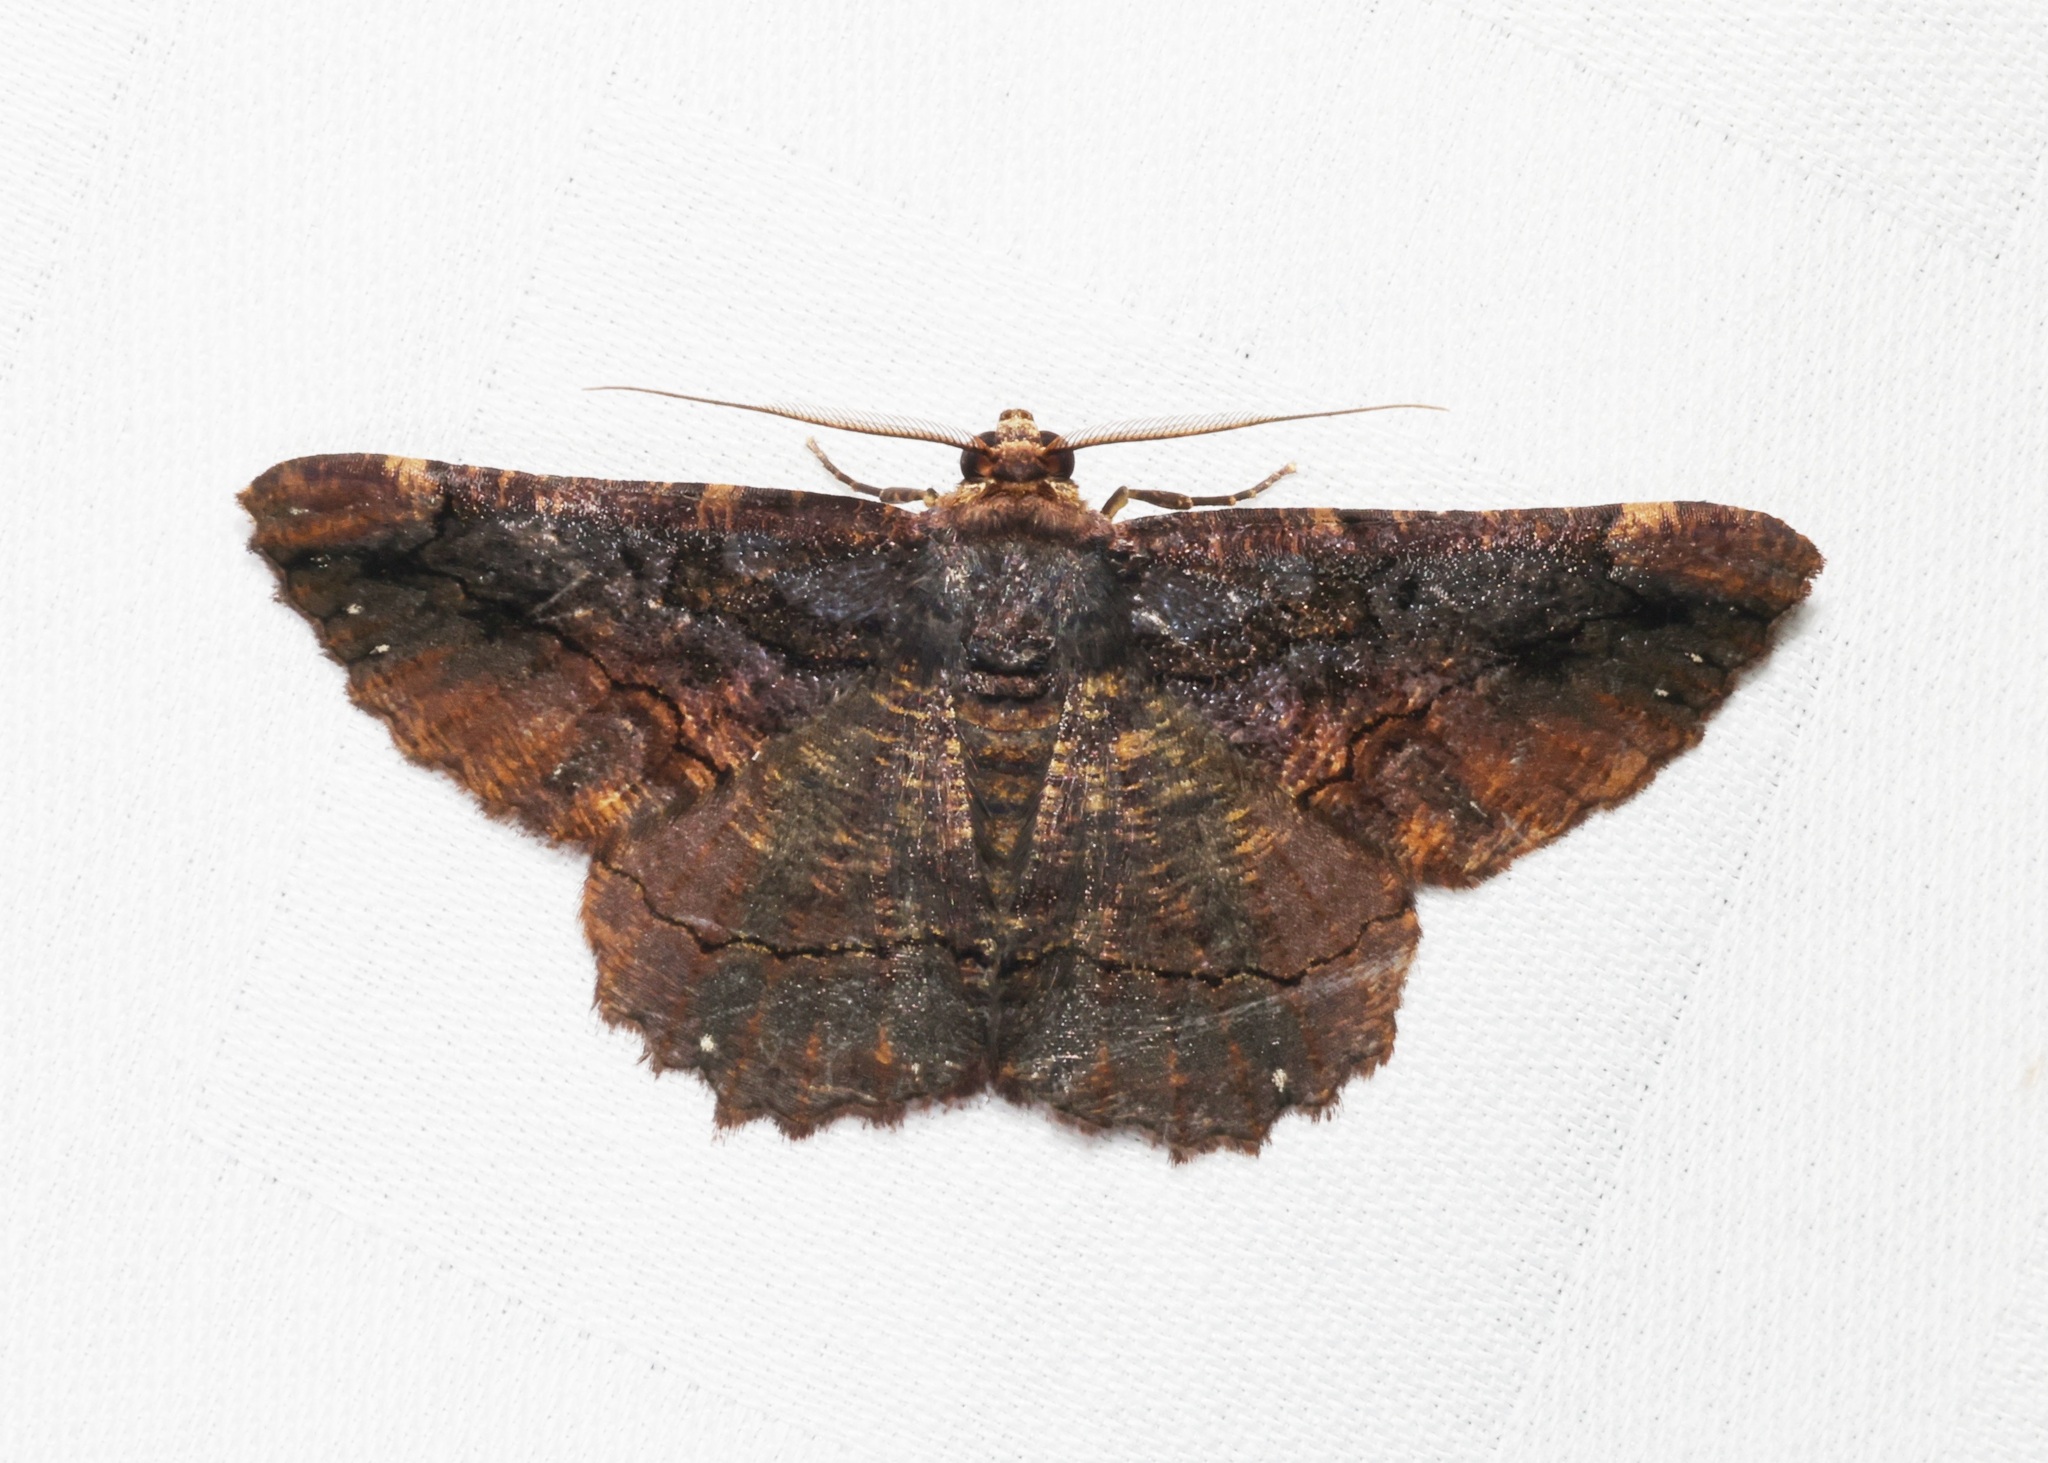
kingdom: Animalia
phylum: Arthropoda
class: Insecta
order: Lepidoptera
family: Geometridae
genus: Dasyboarmia
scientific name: Dasyboarmia subpilosa
